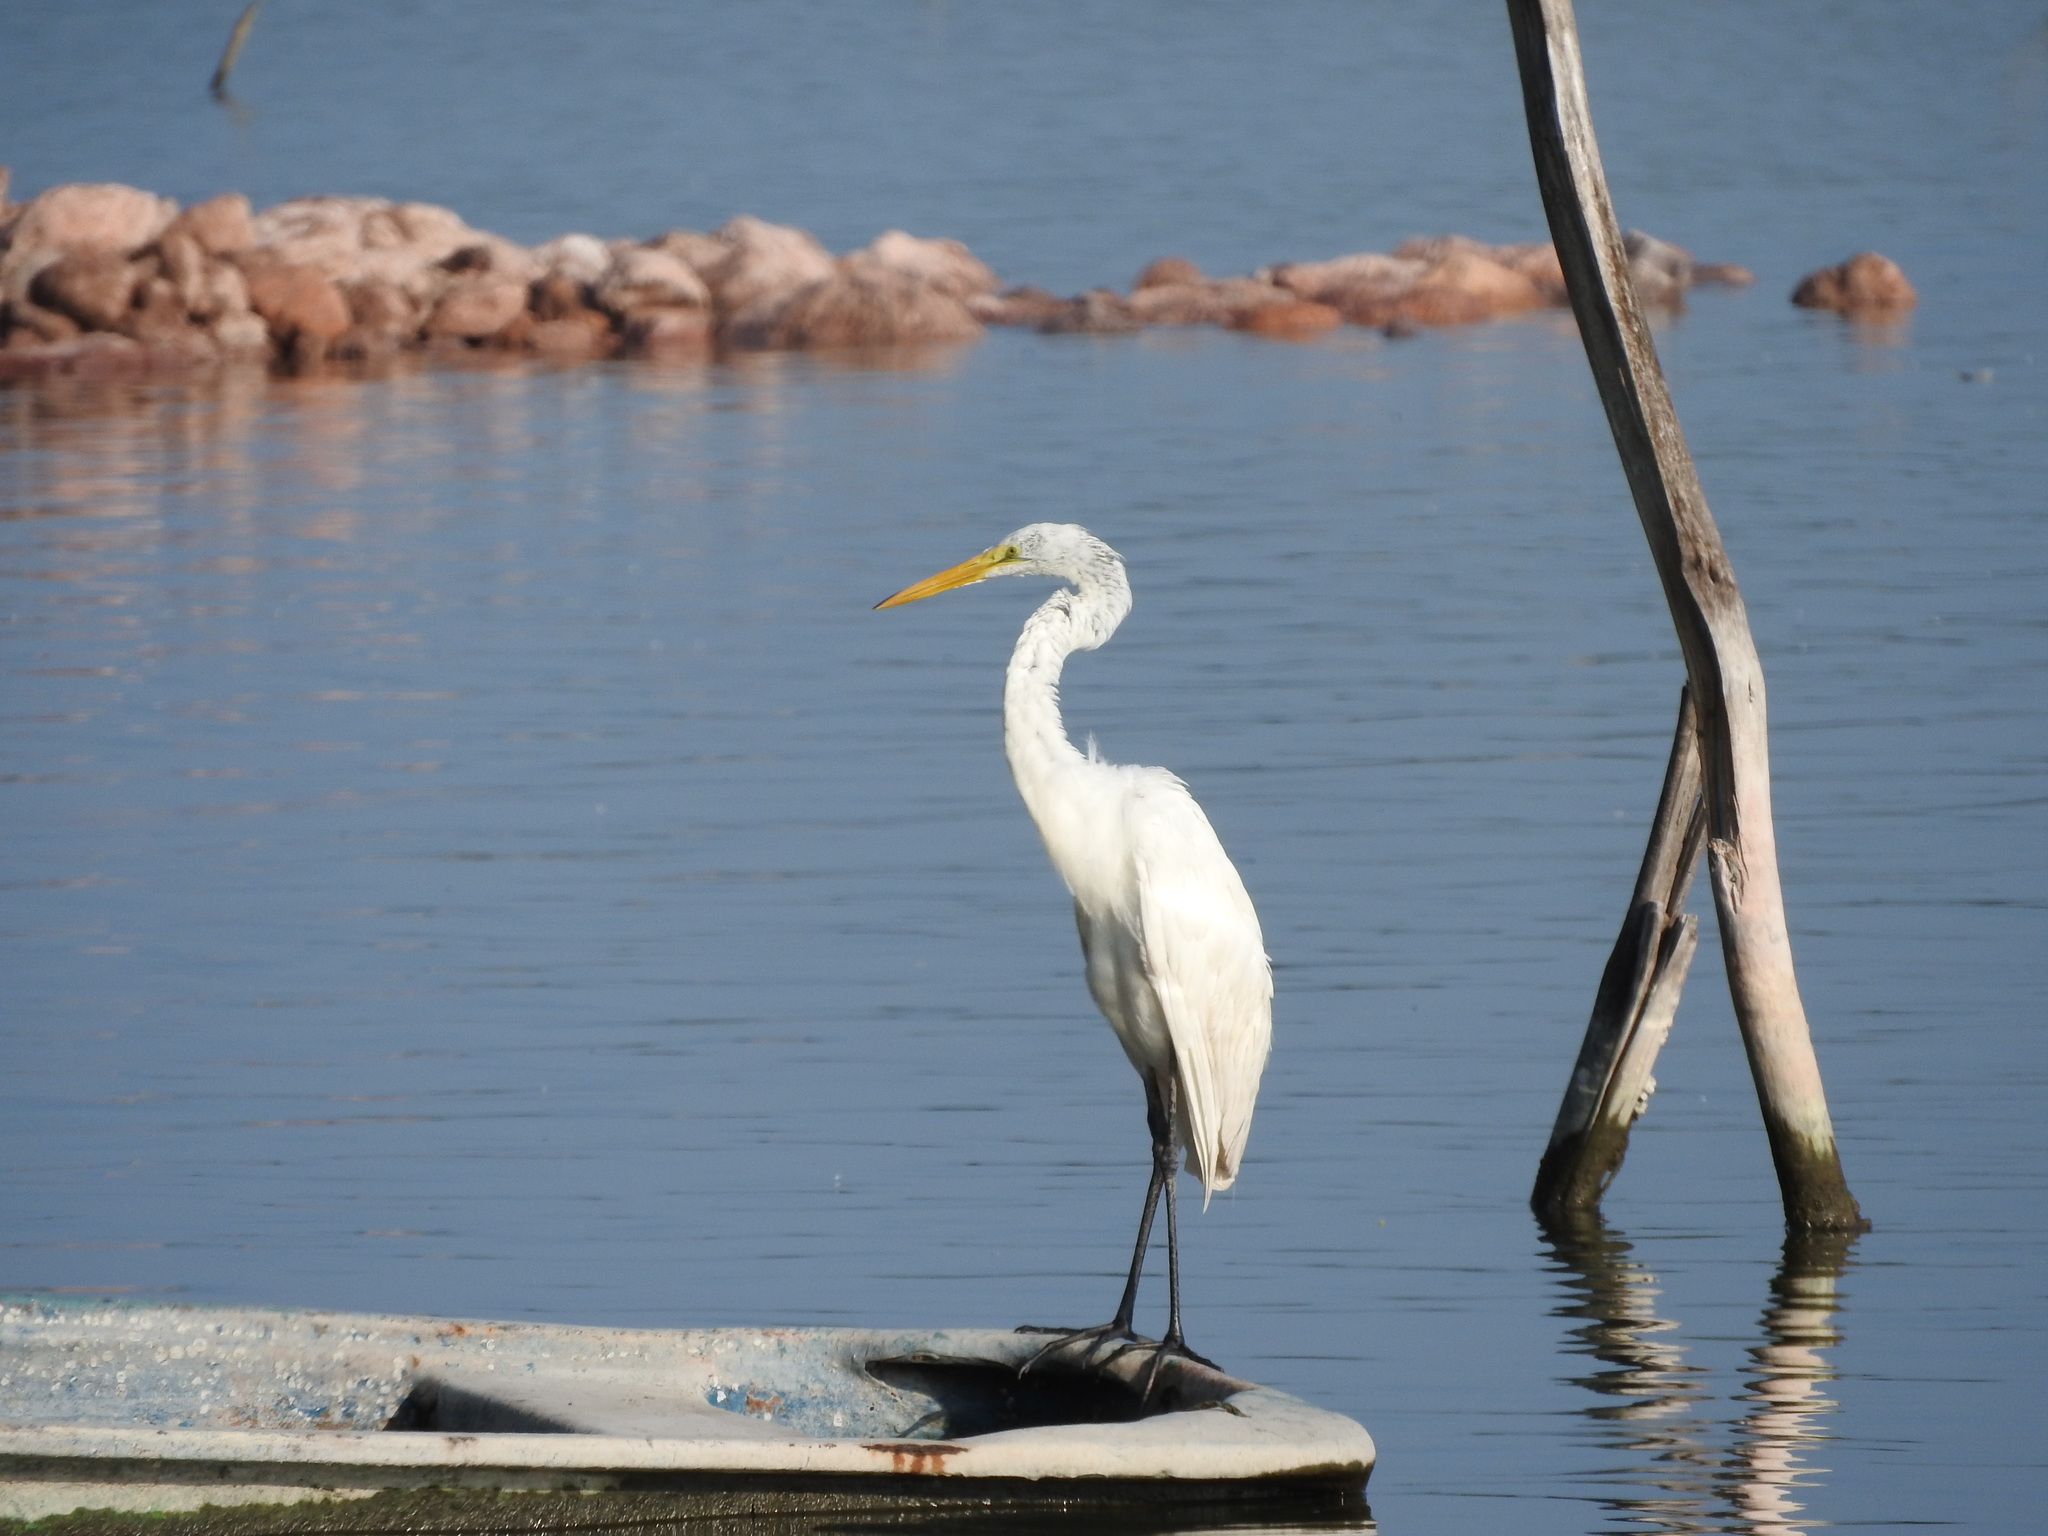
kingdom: Animalia
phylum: Chordata
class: Aves
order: Pelecaniformes
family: Ardeidae
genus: Ardea
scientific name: Ardea alba
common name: Great egret
